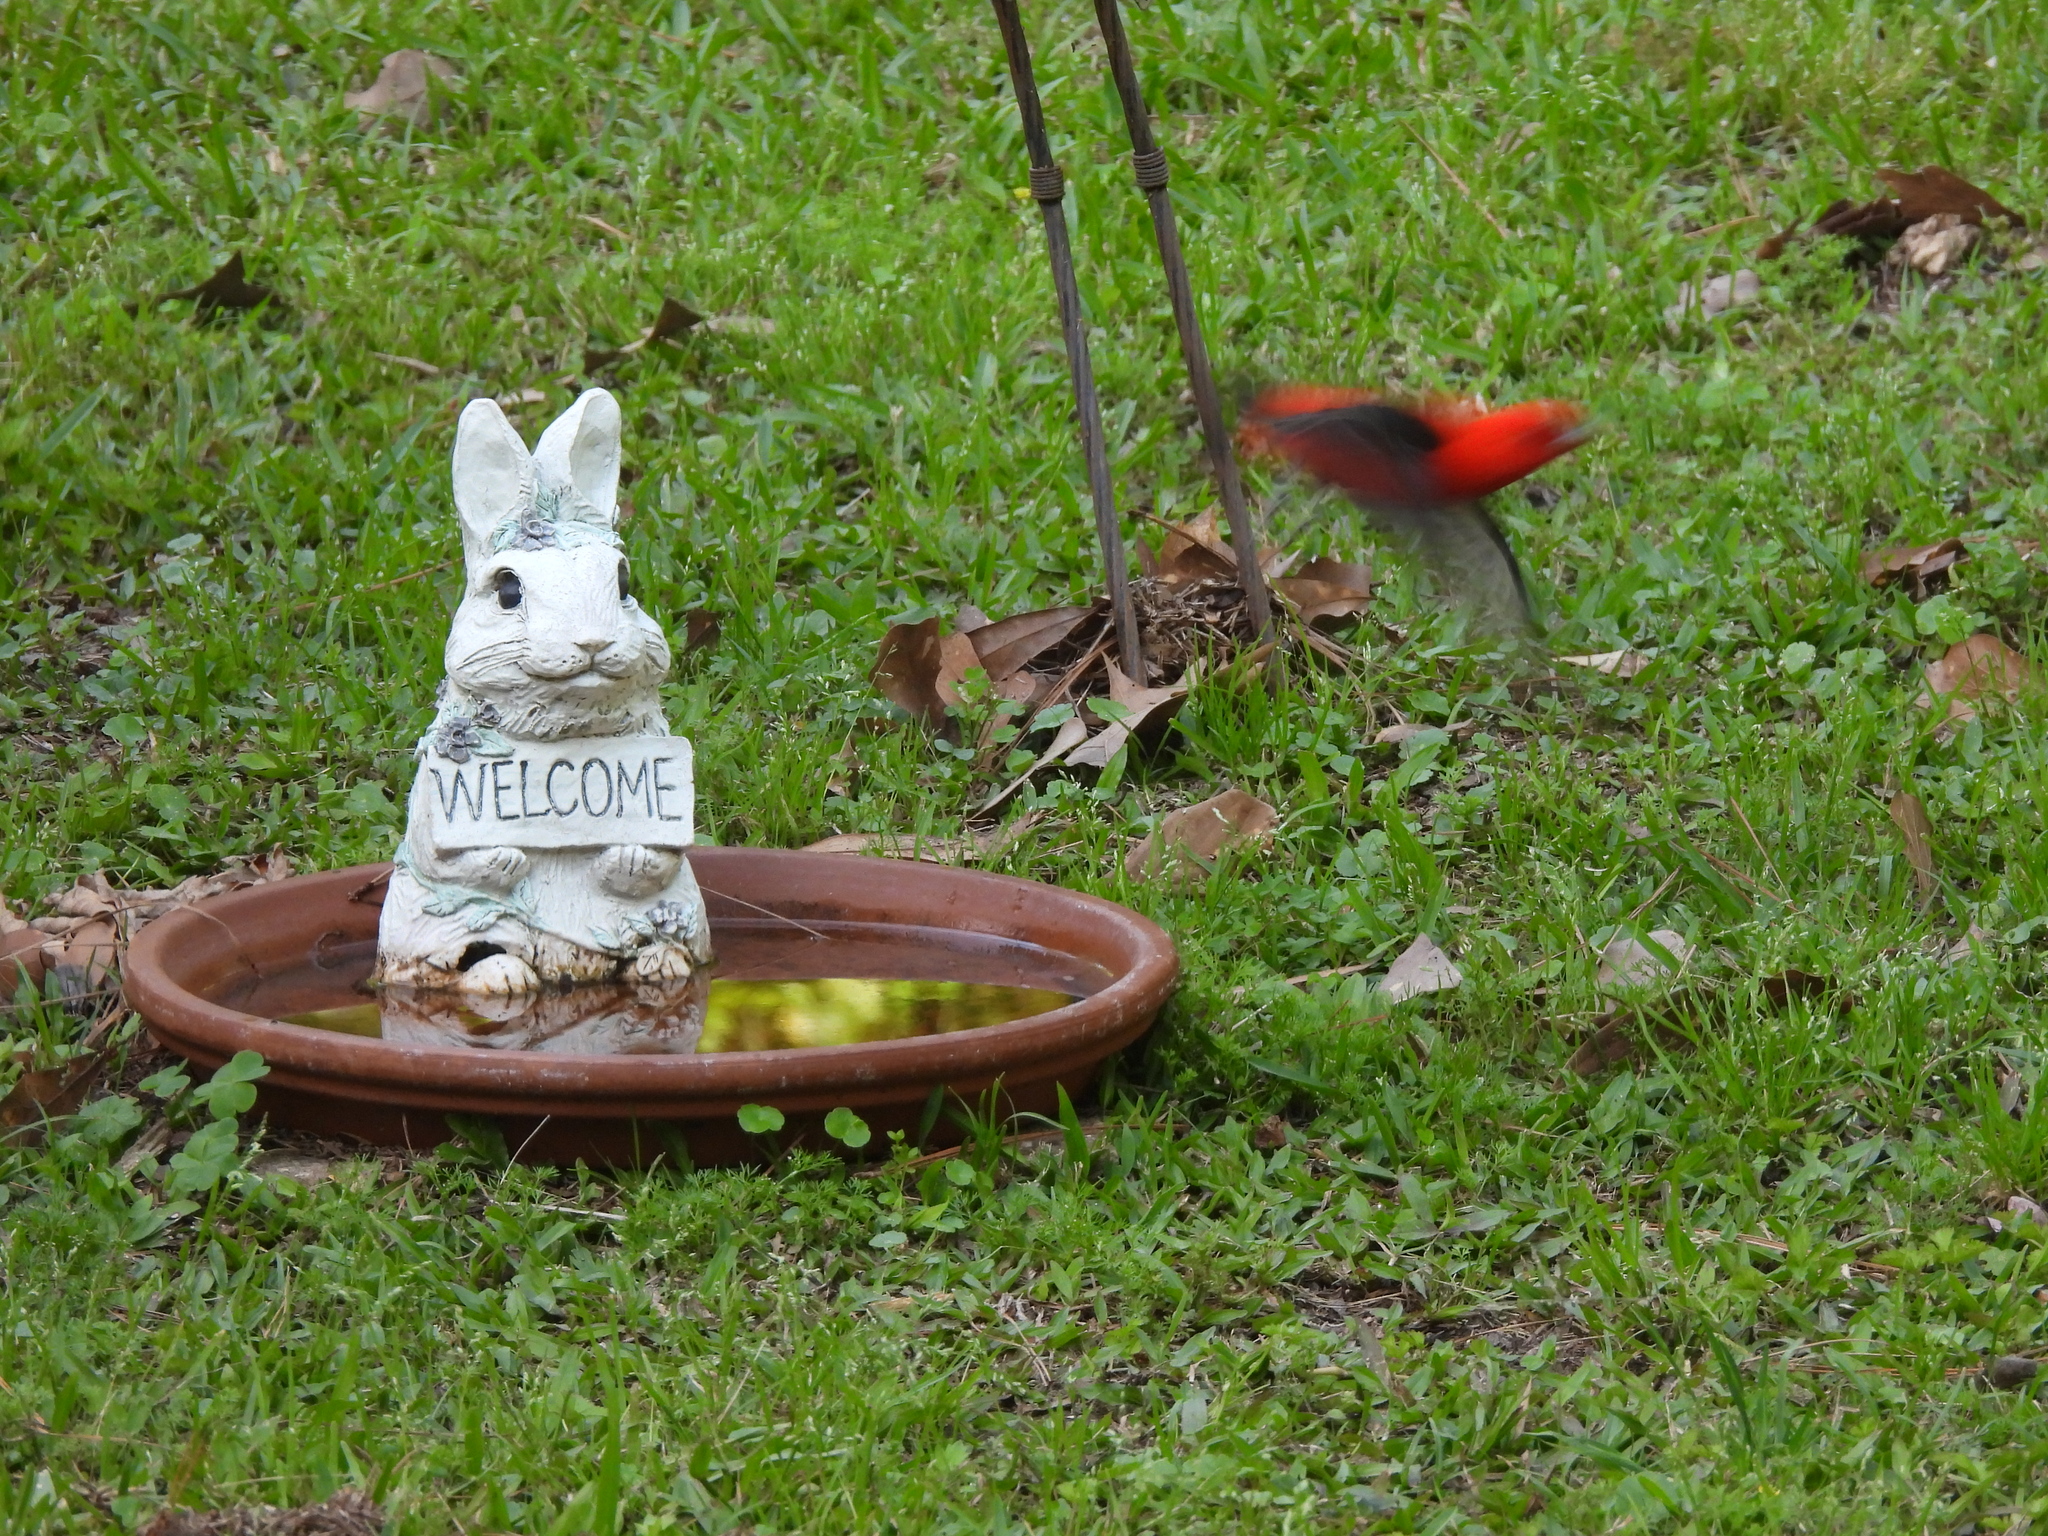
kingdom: Animalia
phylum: Chordata
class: Aves
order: Passeriformes
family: Cardinalidae
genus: Piranga
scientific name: Piranga olivacea
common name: Scarlet tanager
